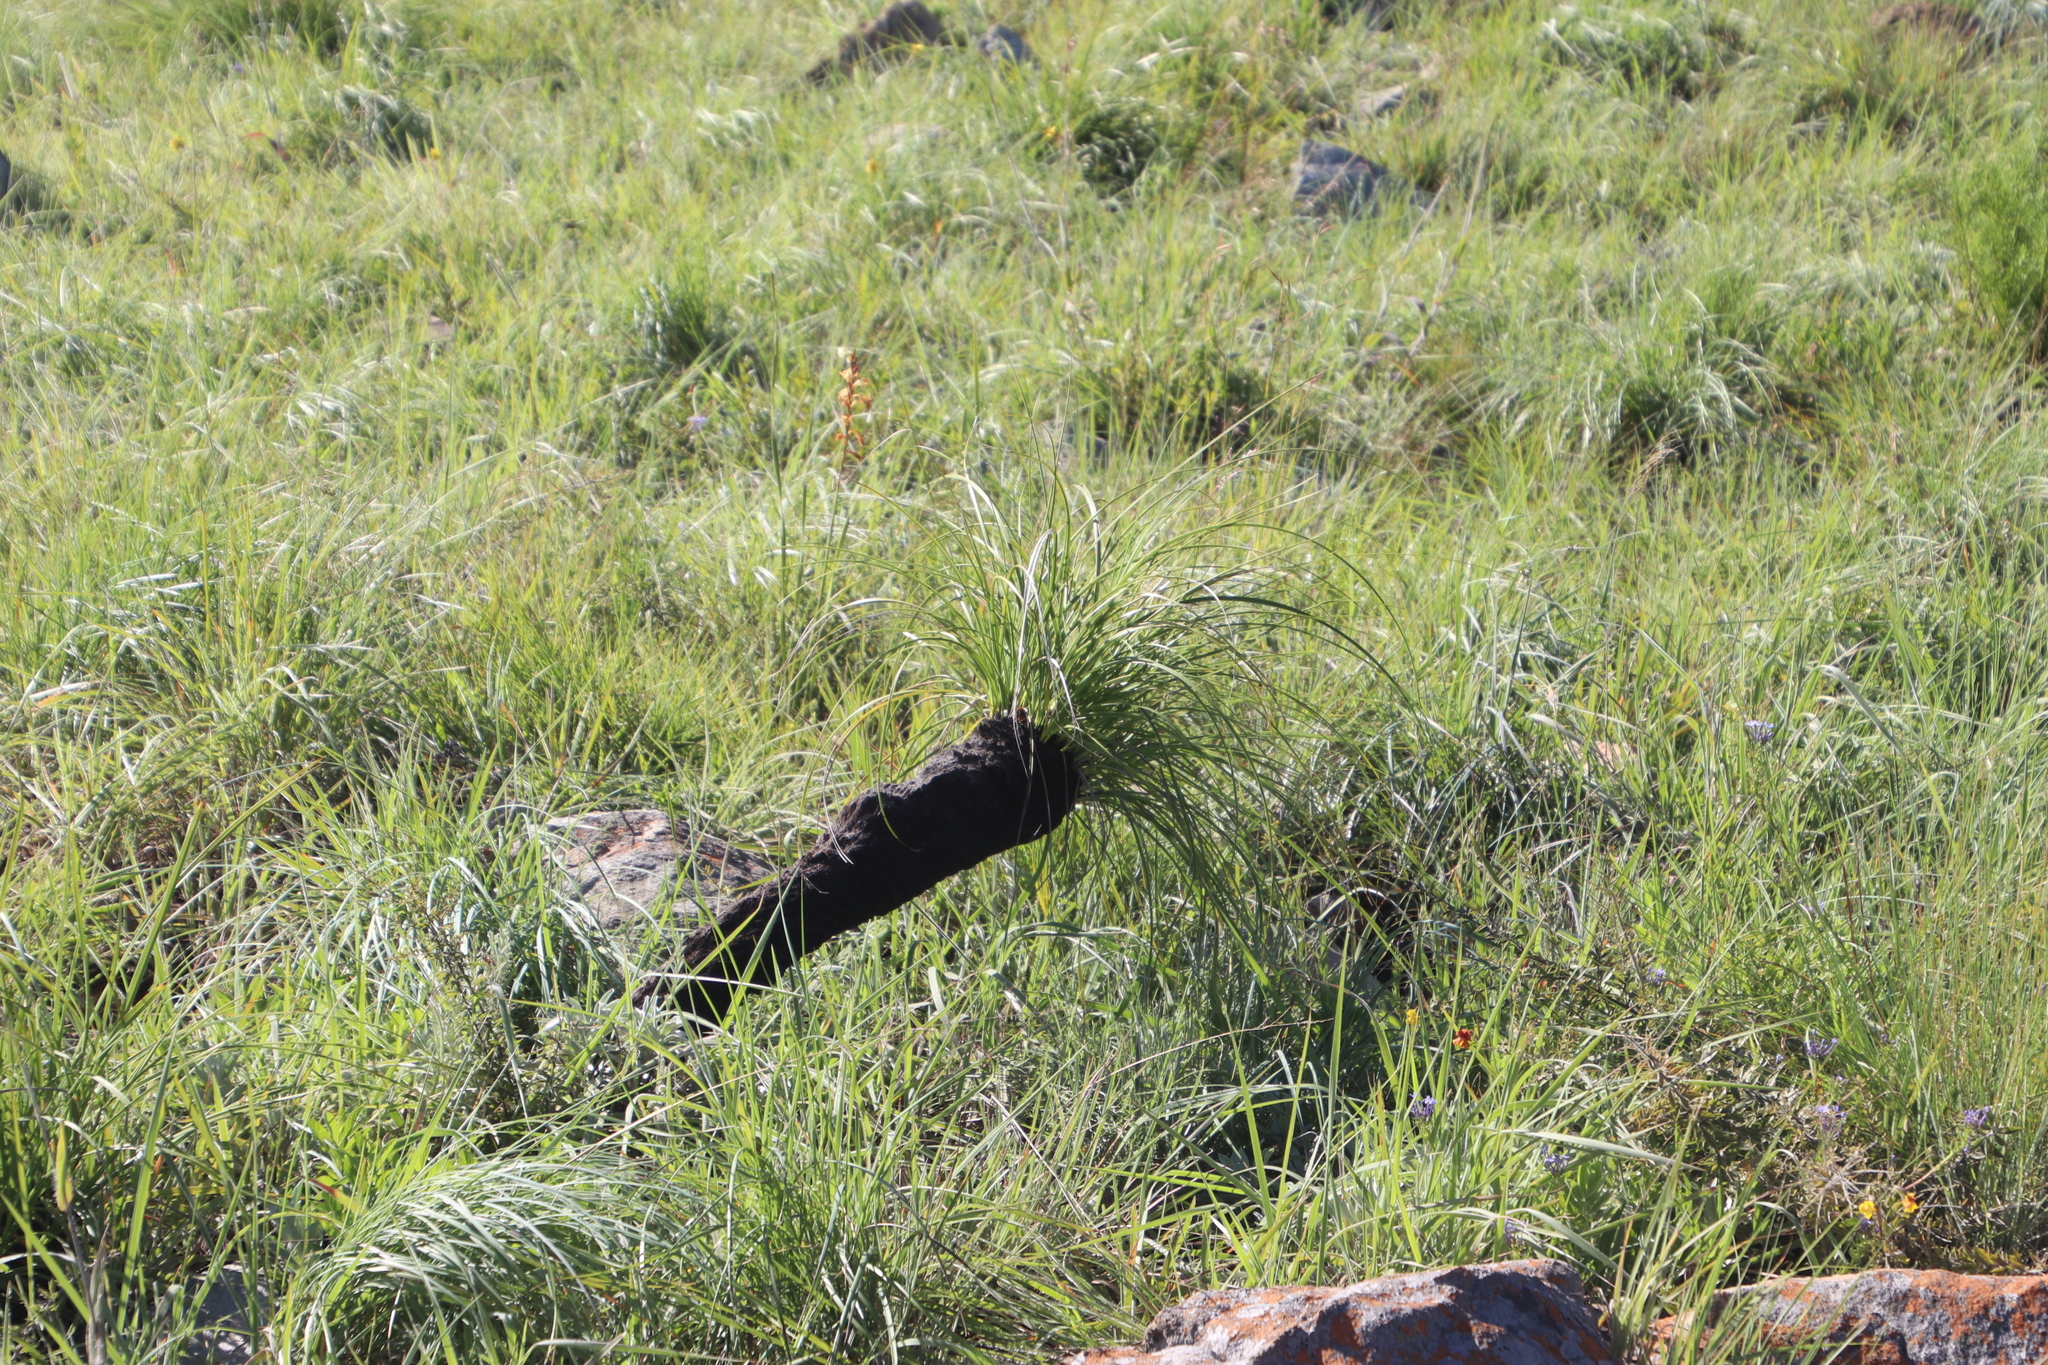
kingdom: Plantae
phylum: Tracheophyta
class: Liliopsida
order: Pandanales
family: Velloziaceae
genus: Xerophyta
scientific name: Xerophyta retinervis
